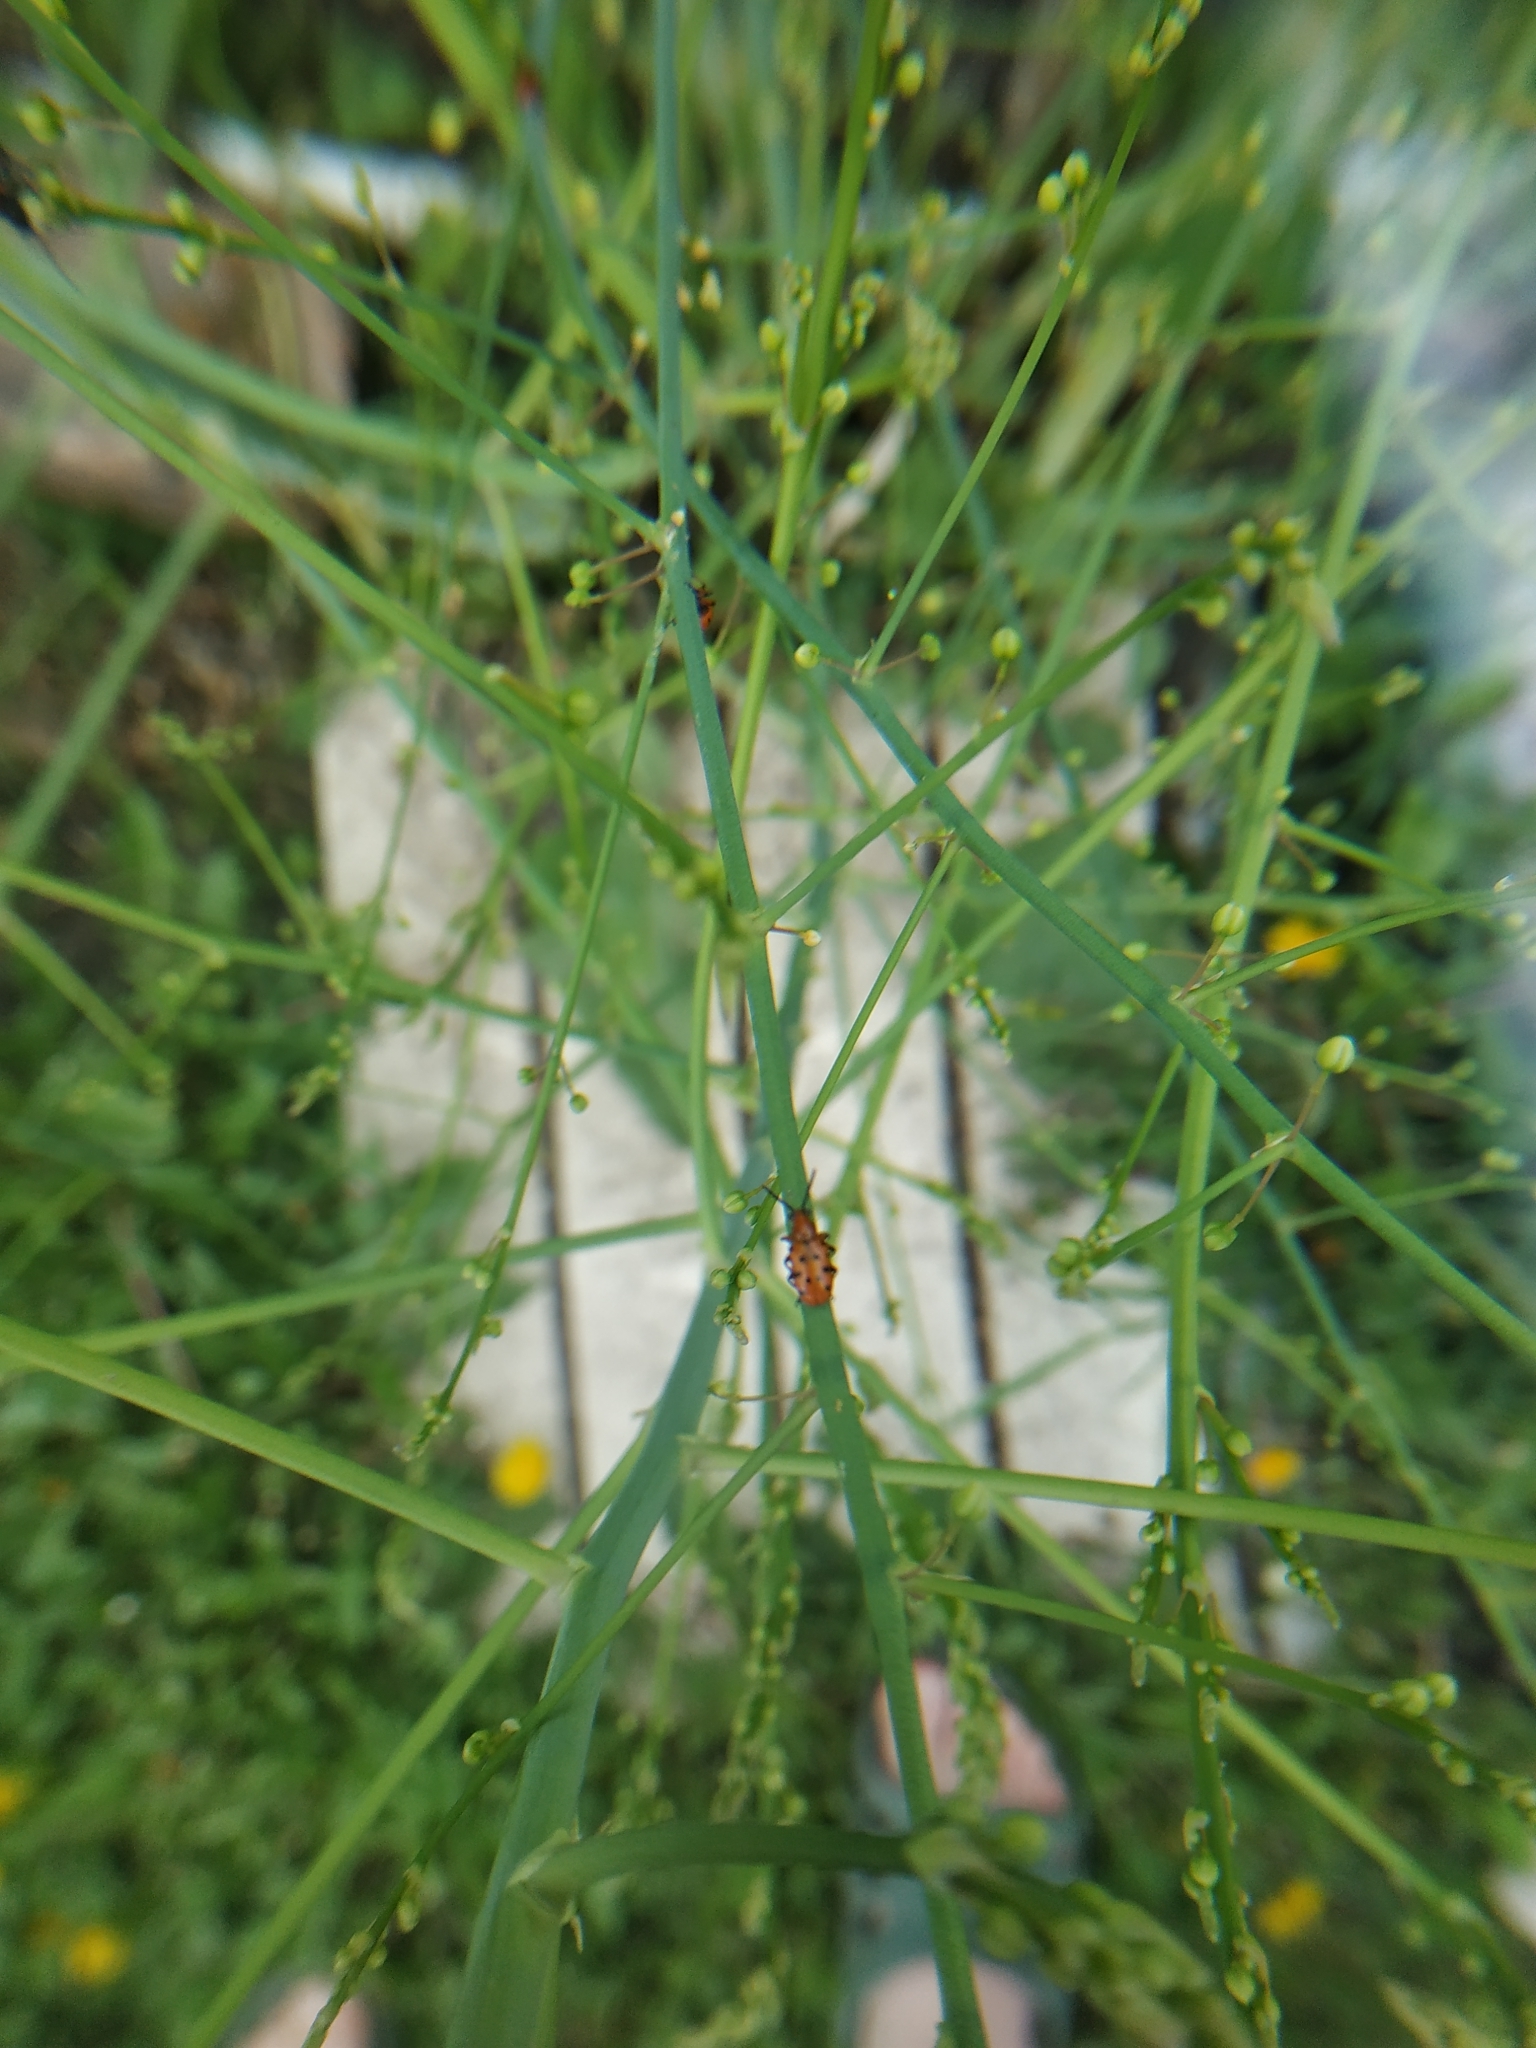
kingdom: Animalia
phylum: Arthropoda
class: Insecta
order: Coleoptera
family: Chrysomelidae
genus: Crioceris
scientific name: Crioceris duodecimpunctata
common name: Twelve-spotted asparagus beetle
